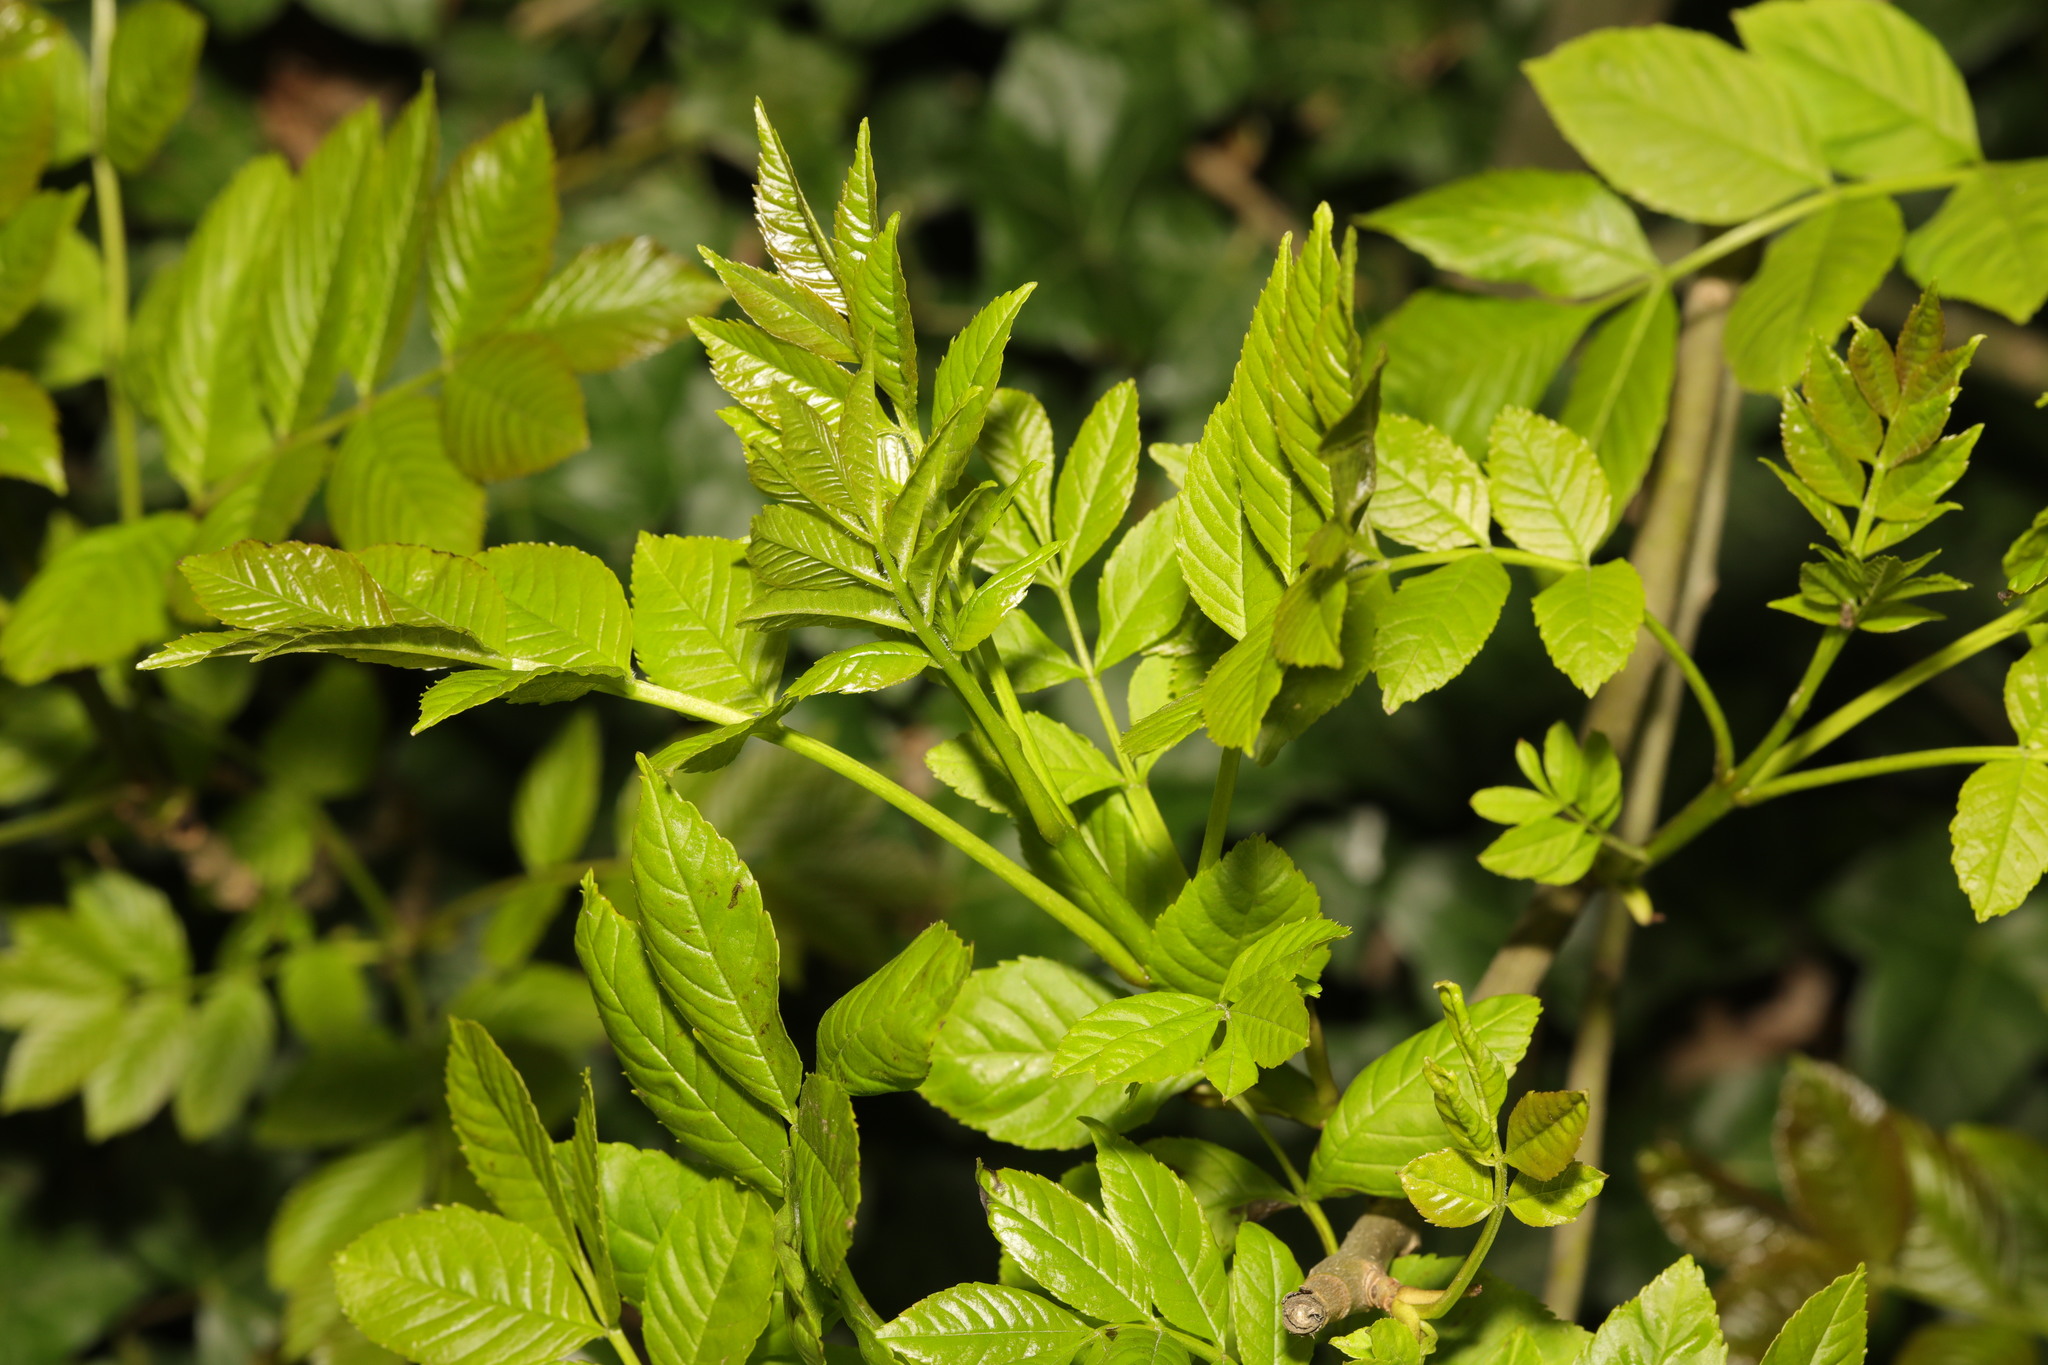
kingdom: Plantae
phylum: Tracheophyta
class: Magnoliopsida
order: Lamiales
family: Oleaceae
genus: Fraxinus
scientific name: Fraxinus excelsior
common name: European ash
